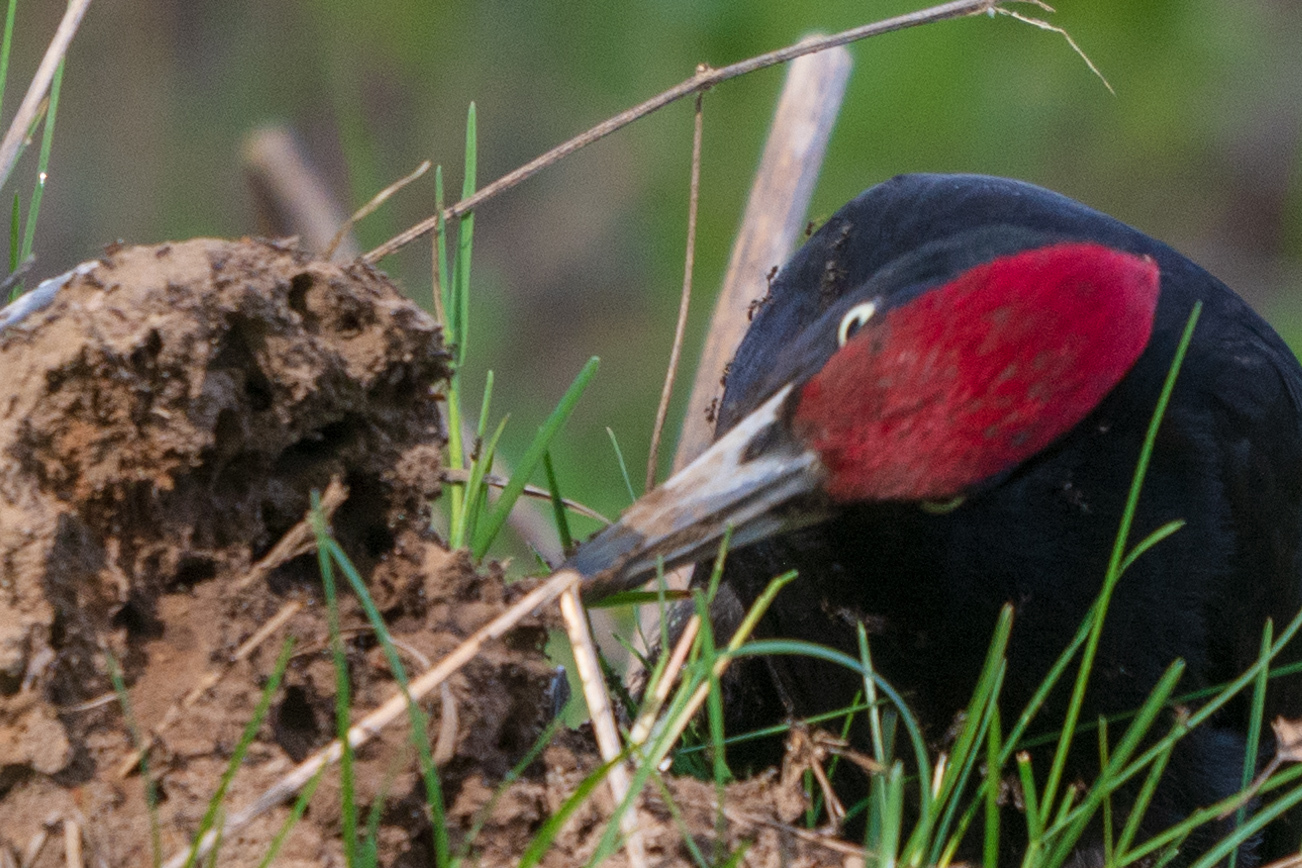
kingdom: Animalia
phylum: Chordata
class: Aves
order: Piciformes
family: Picidae
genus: Dryocopus
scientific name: Dryocopus martius
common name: Black woodpecker
